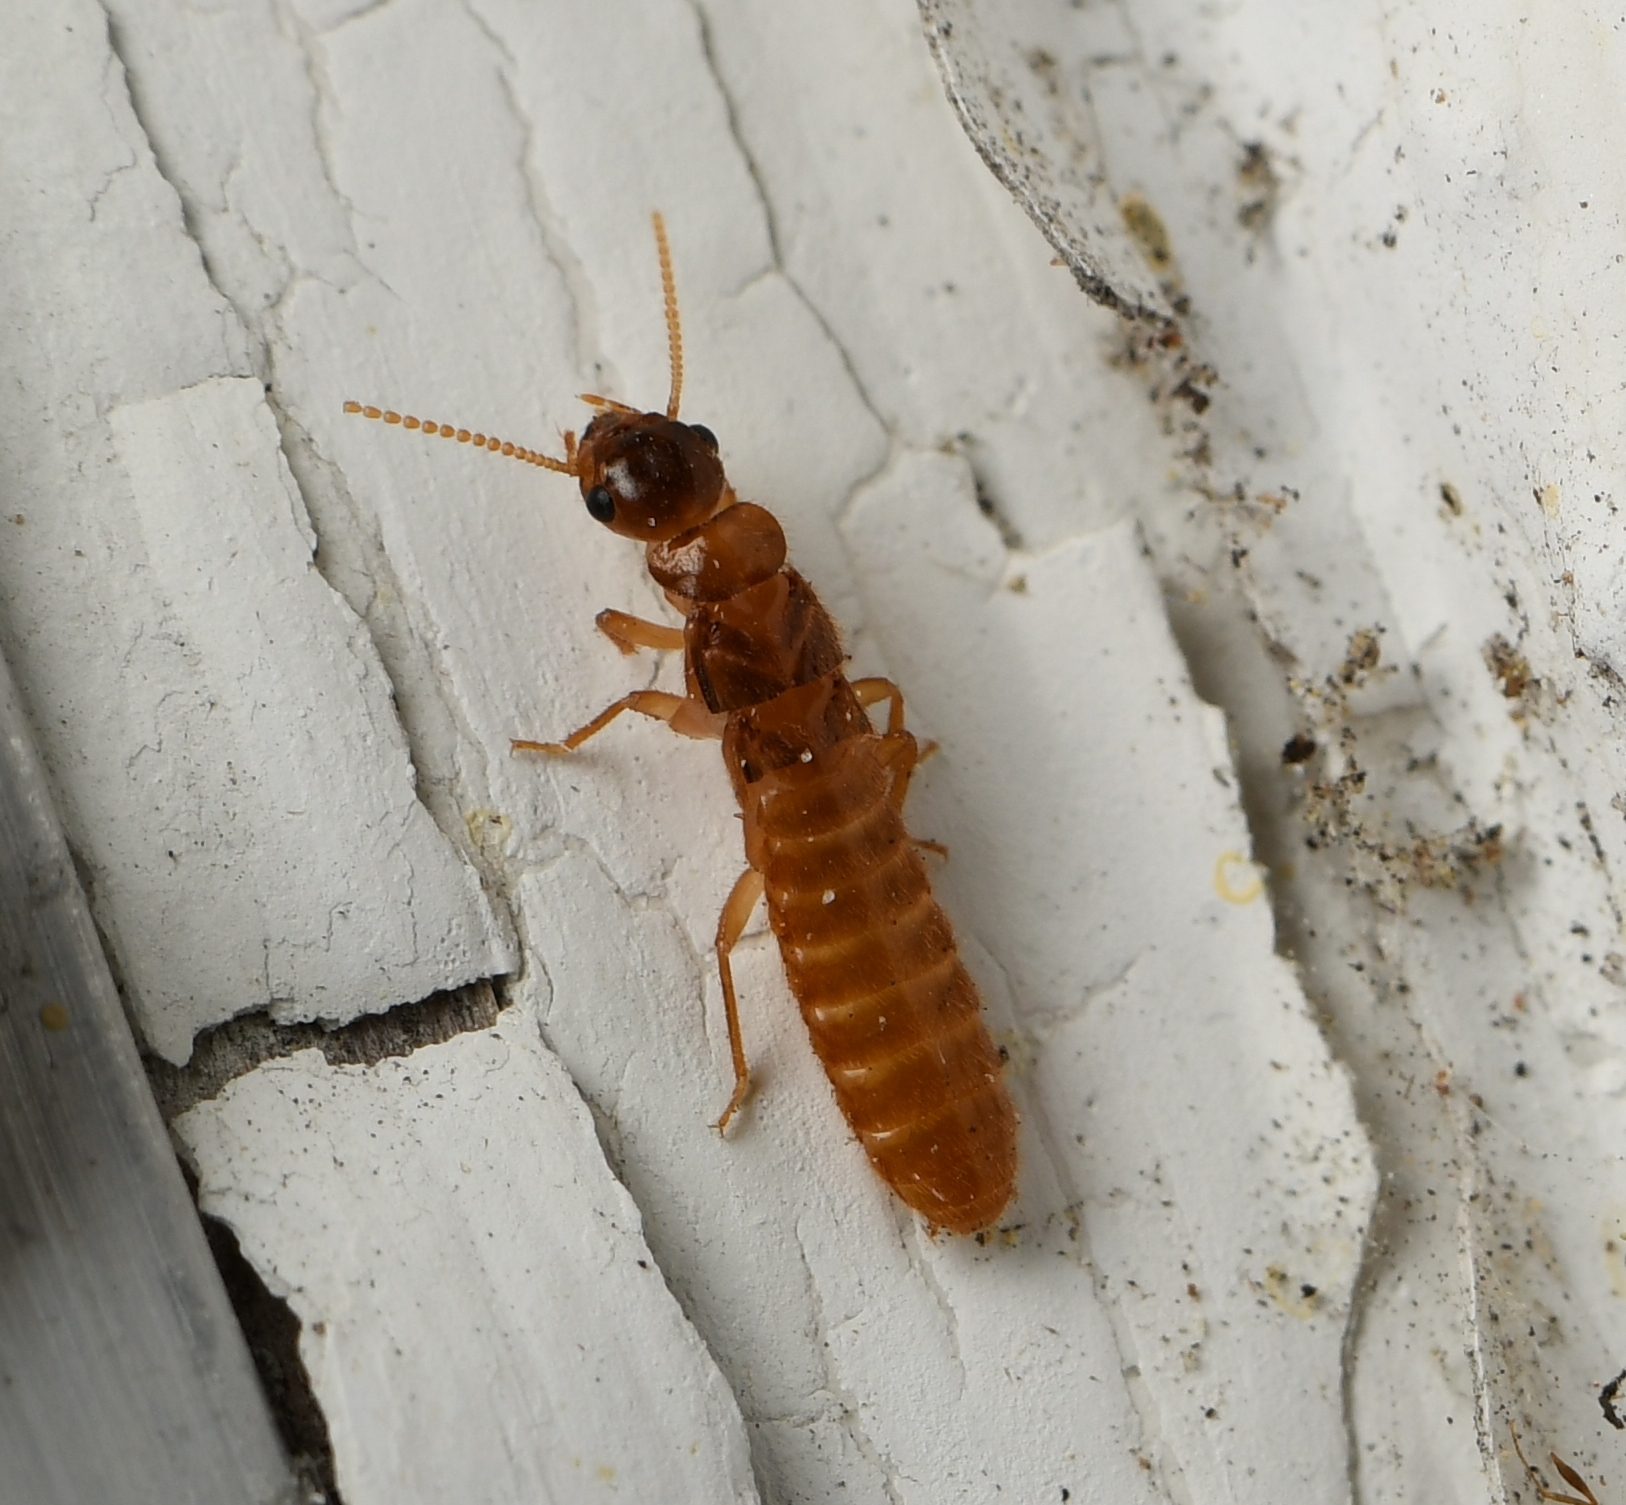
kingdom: Animalia
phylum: Arthropoda
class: Insecta
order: Blattodea
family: Rhinotermitidae
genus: Coptotermes
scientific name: Coptotermes formosanus
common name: Formosan termite
